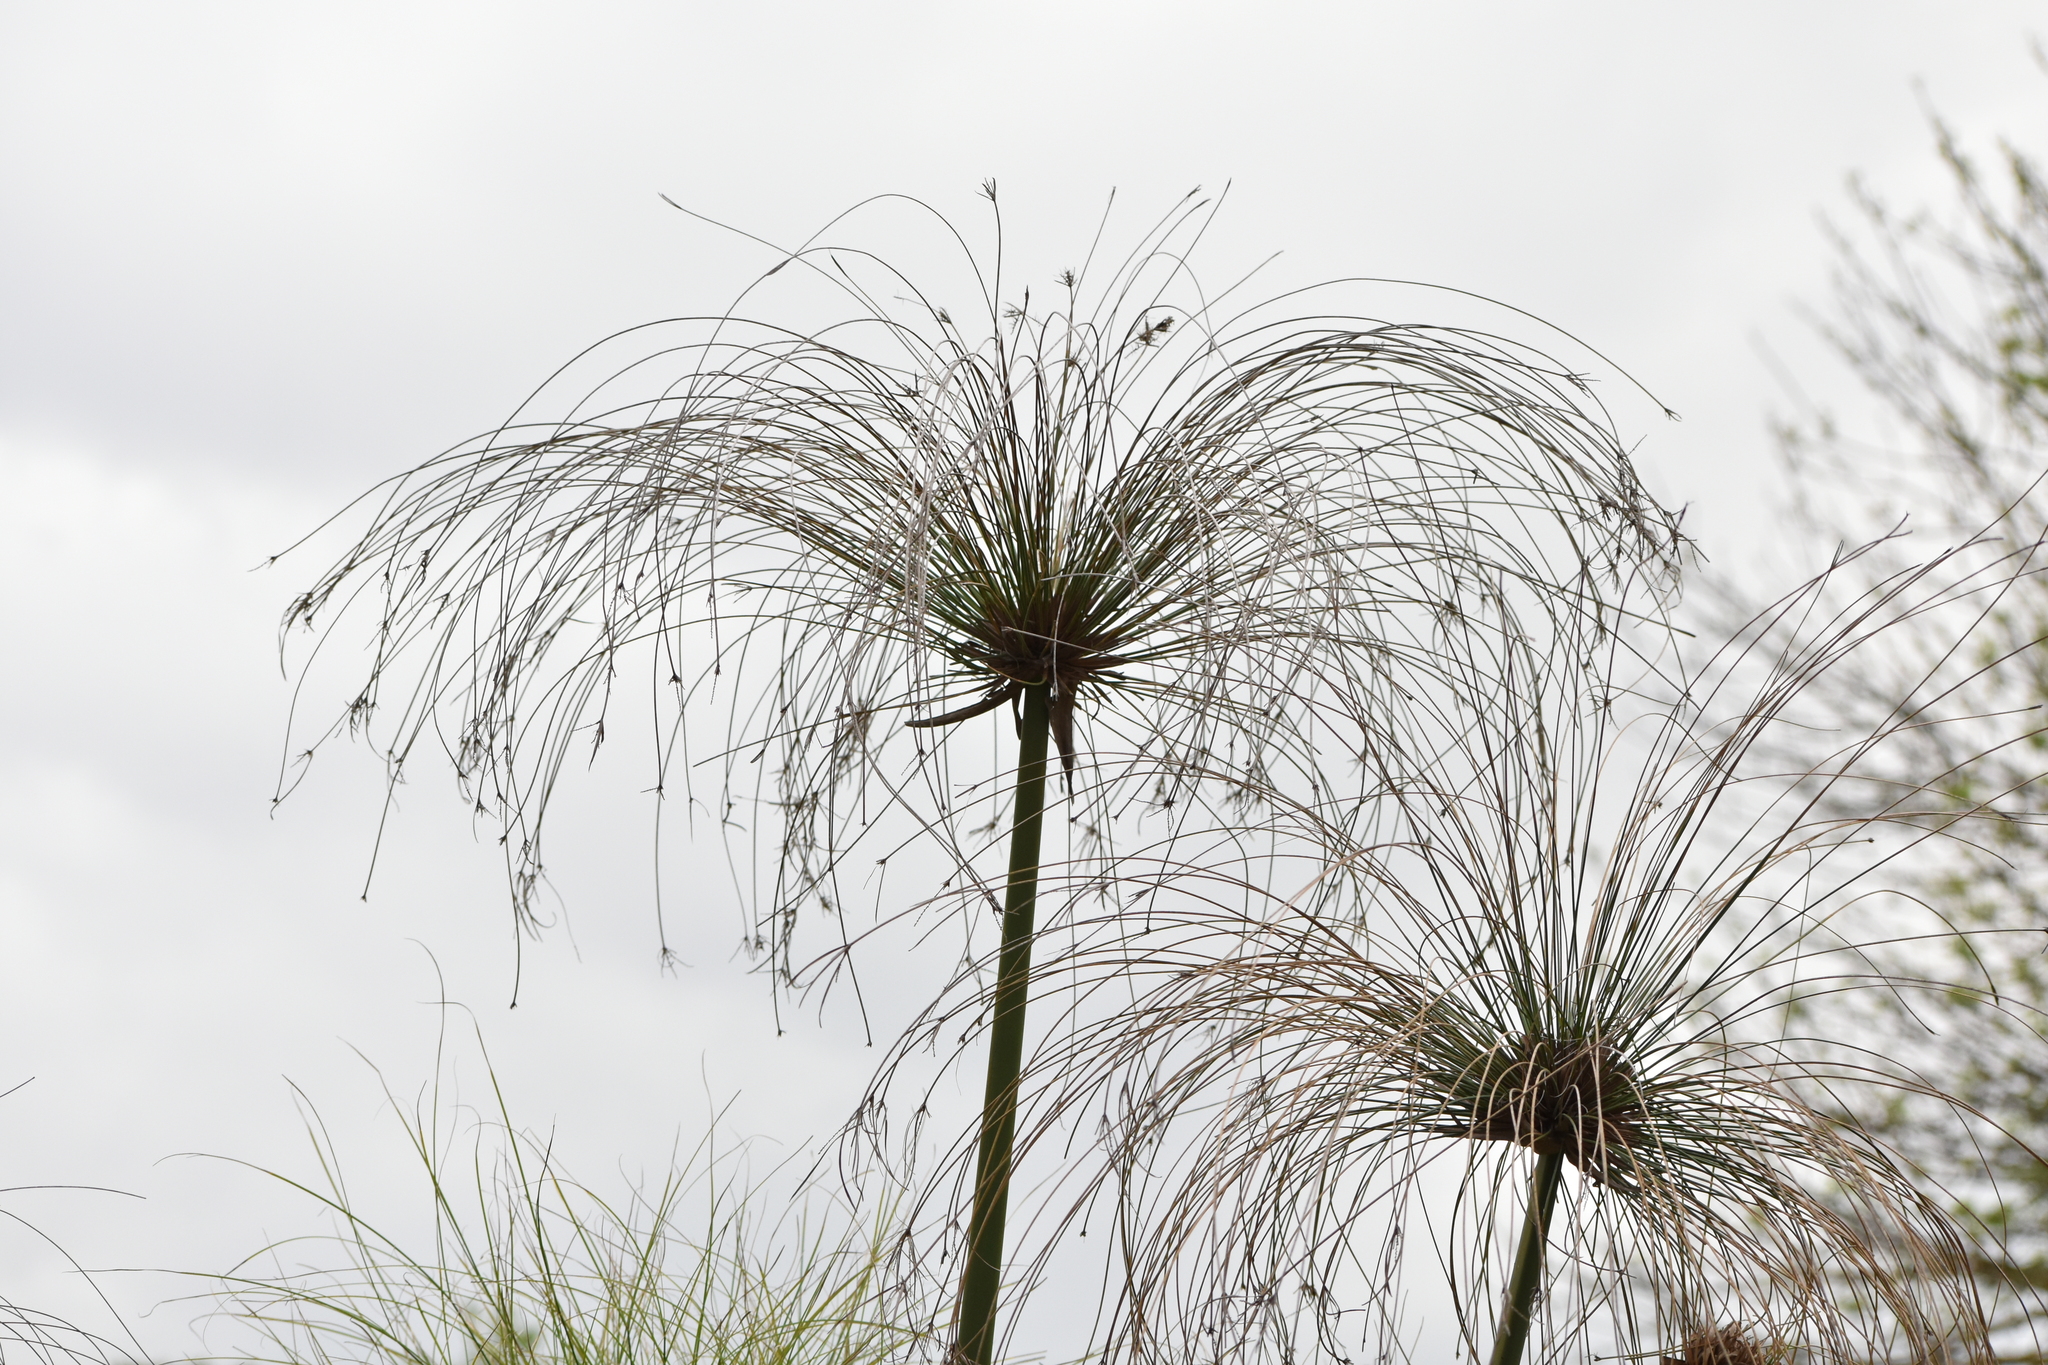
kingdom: Plantae
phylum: Tracheophyta
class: Liliopsida
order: Poales
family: Cyperaceae
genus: Cyperus
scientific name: Cyperus papyrus
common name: Papyrus
